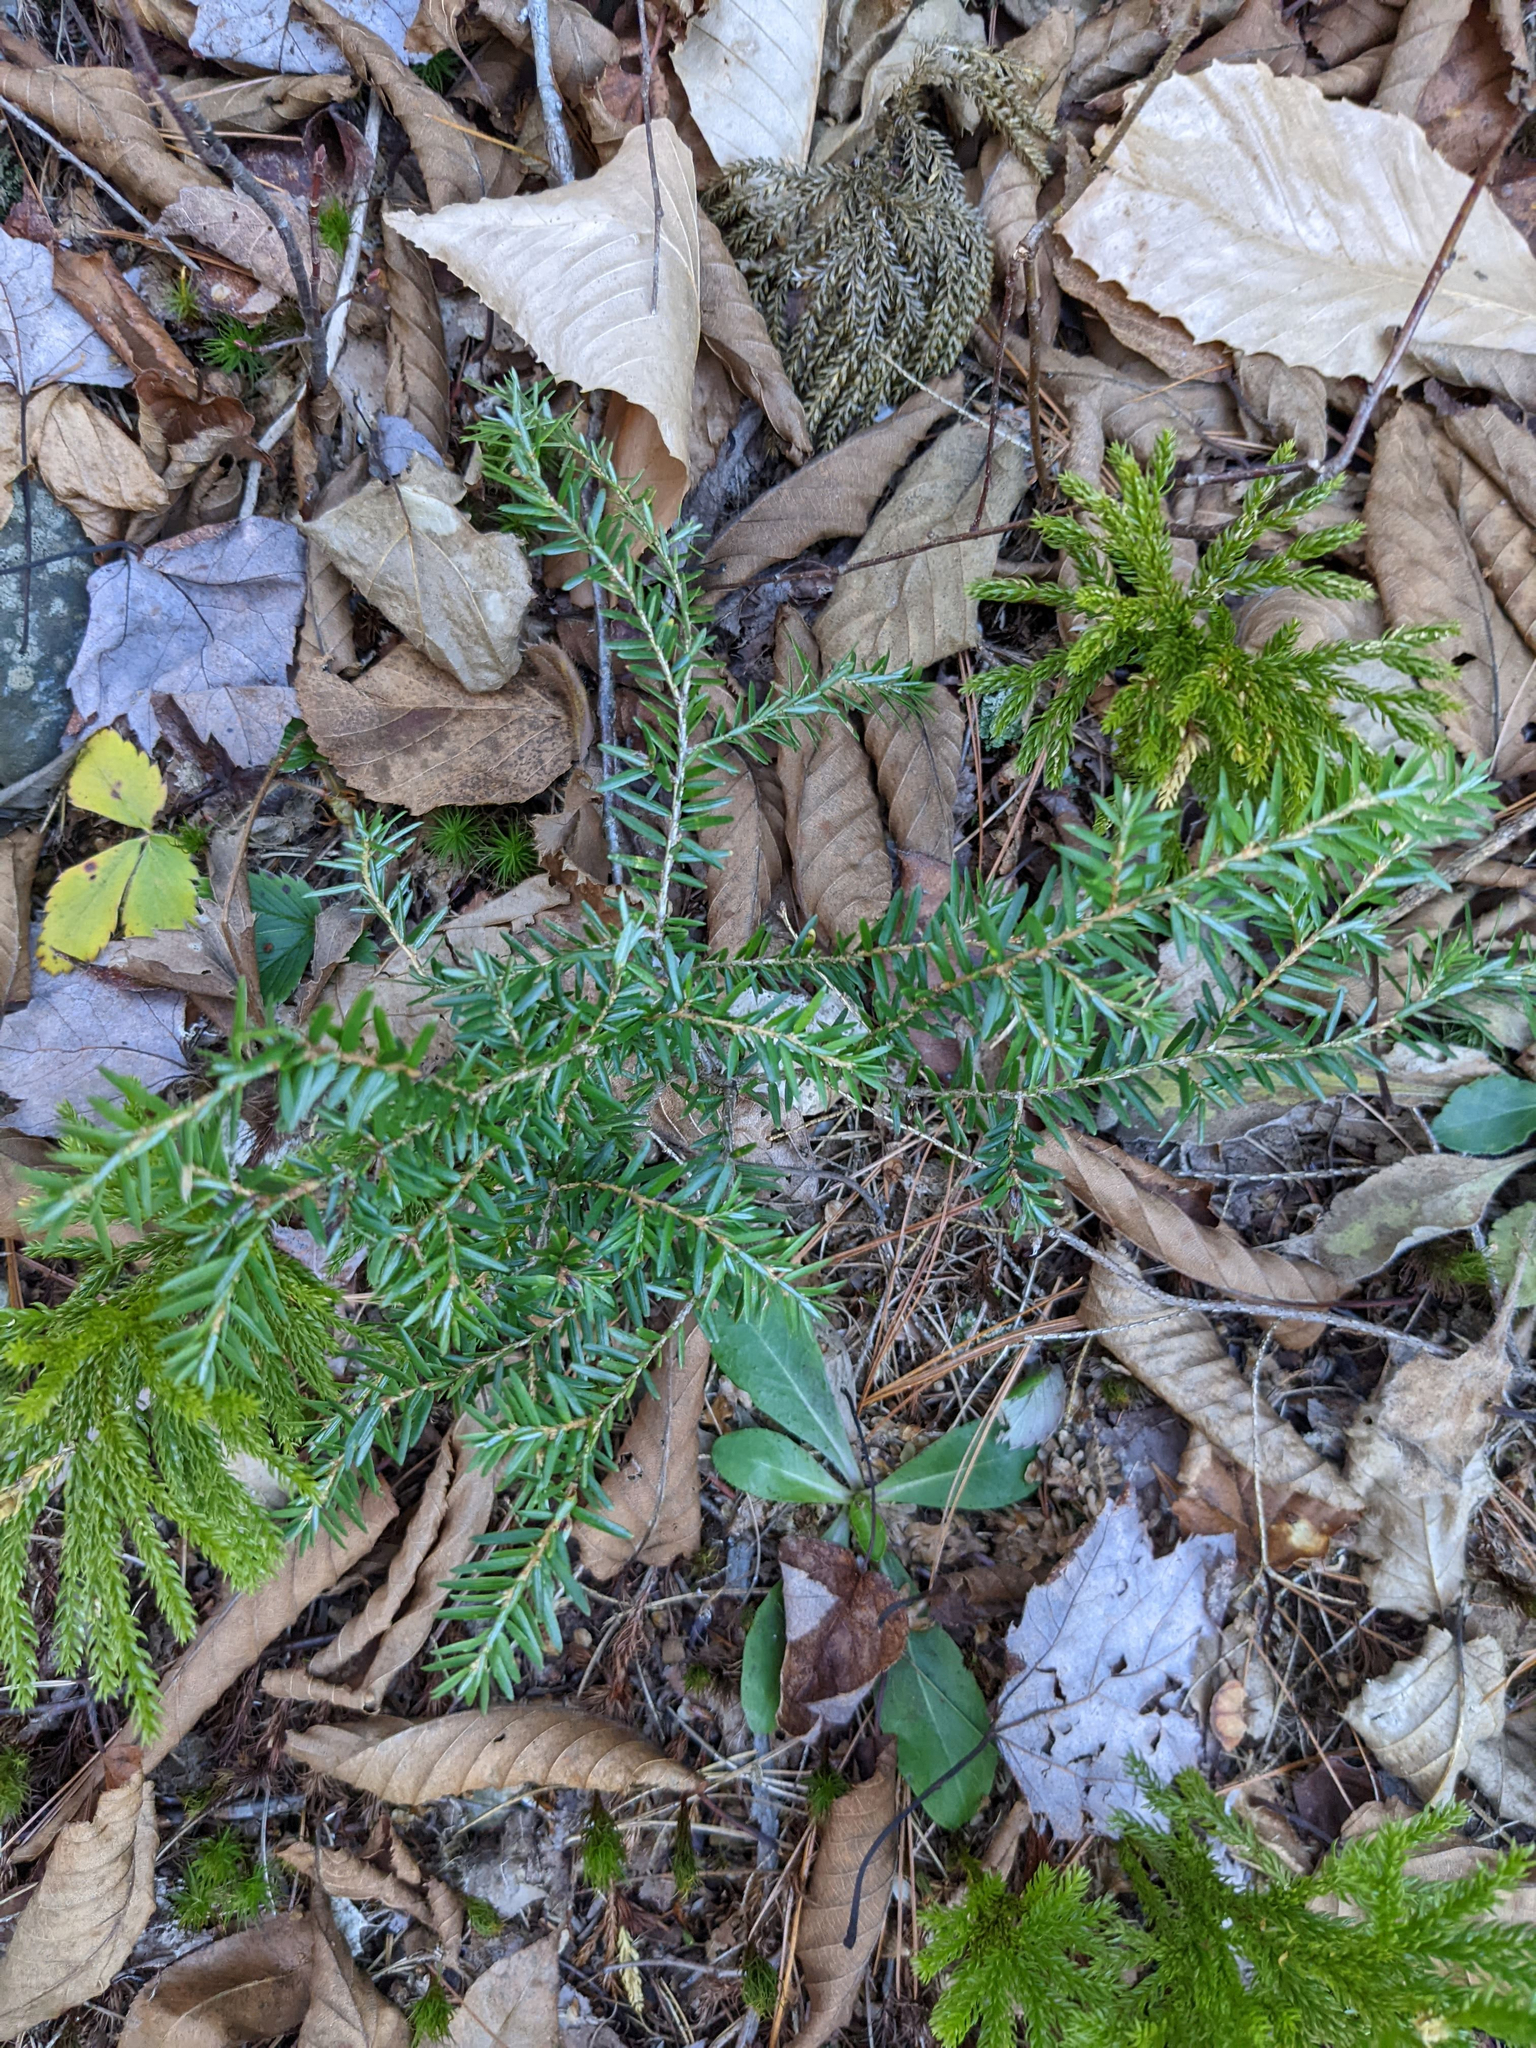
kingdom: Plantae
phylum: Tracheophyta
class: Pinopsida
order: Pinales
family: Pinaceae
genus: Tsuga
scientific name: Tsuga canadensis
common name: Eastern hemlock
